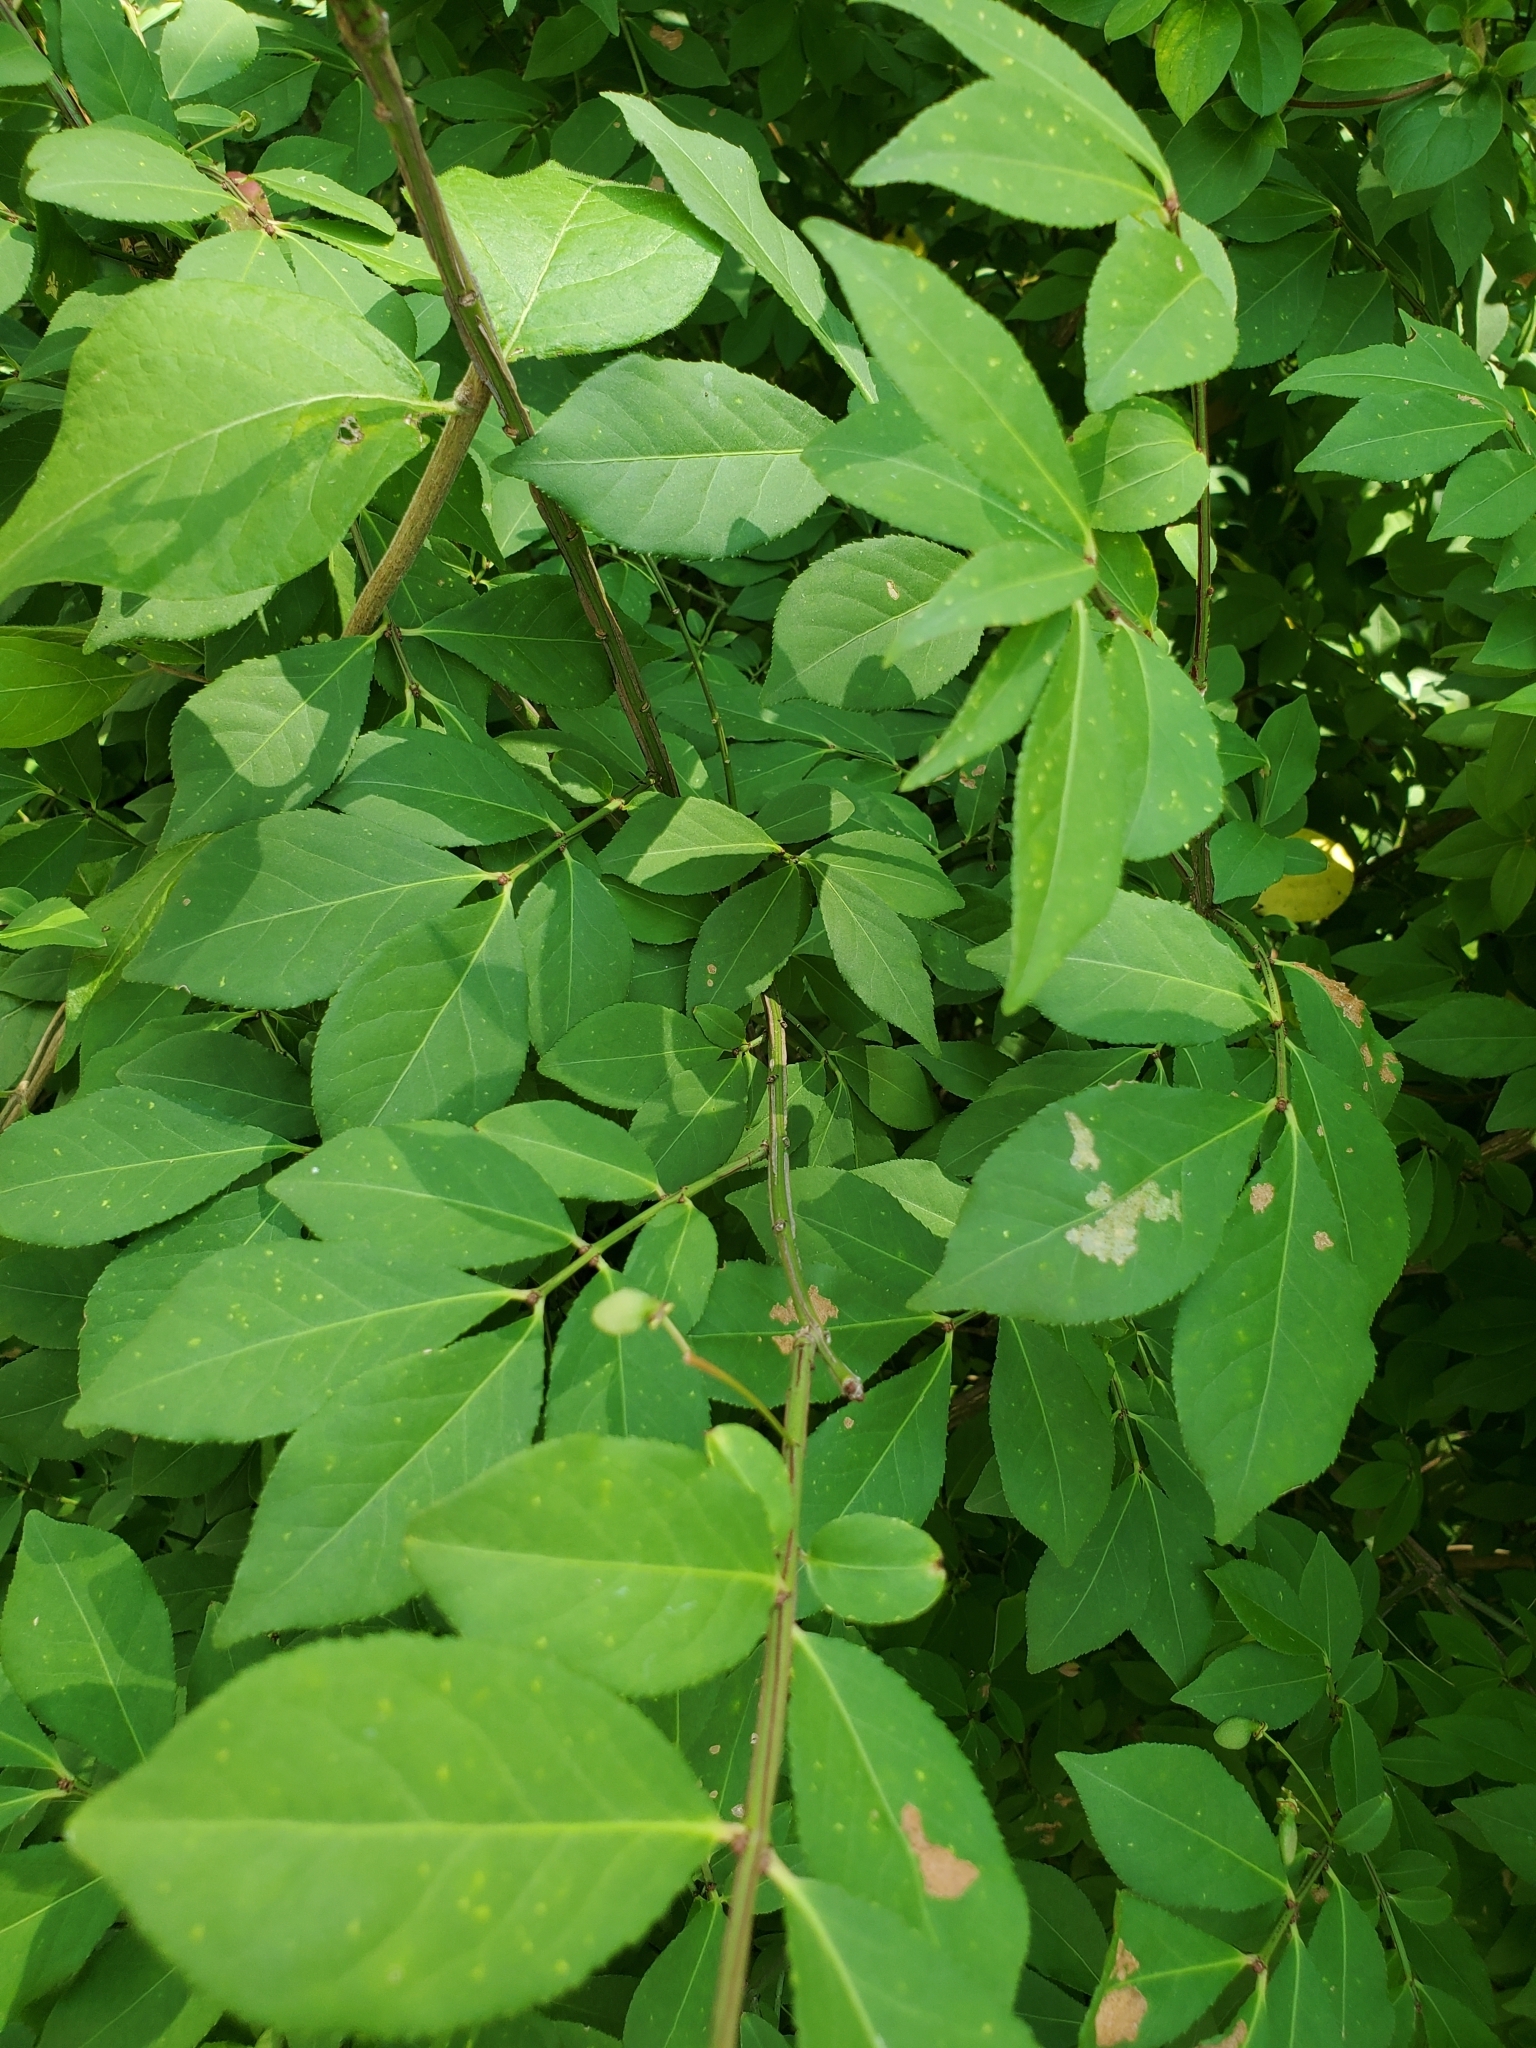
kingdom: Plantae
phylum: Tracheophyta
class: Magnoliopsida
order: Celastrales
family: Celastraceae
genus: Euonymus
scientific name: Euonymus alatus
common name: Winged euonymus
